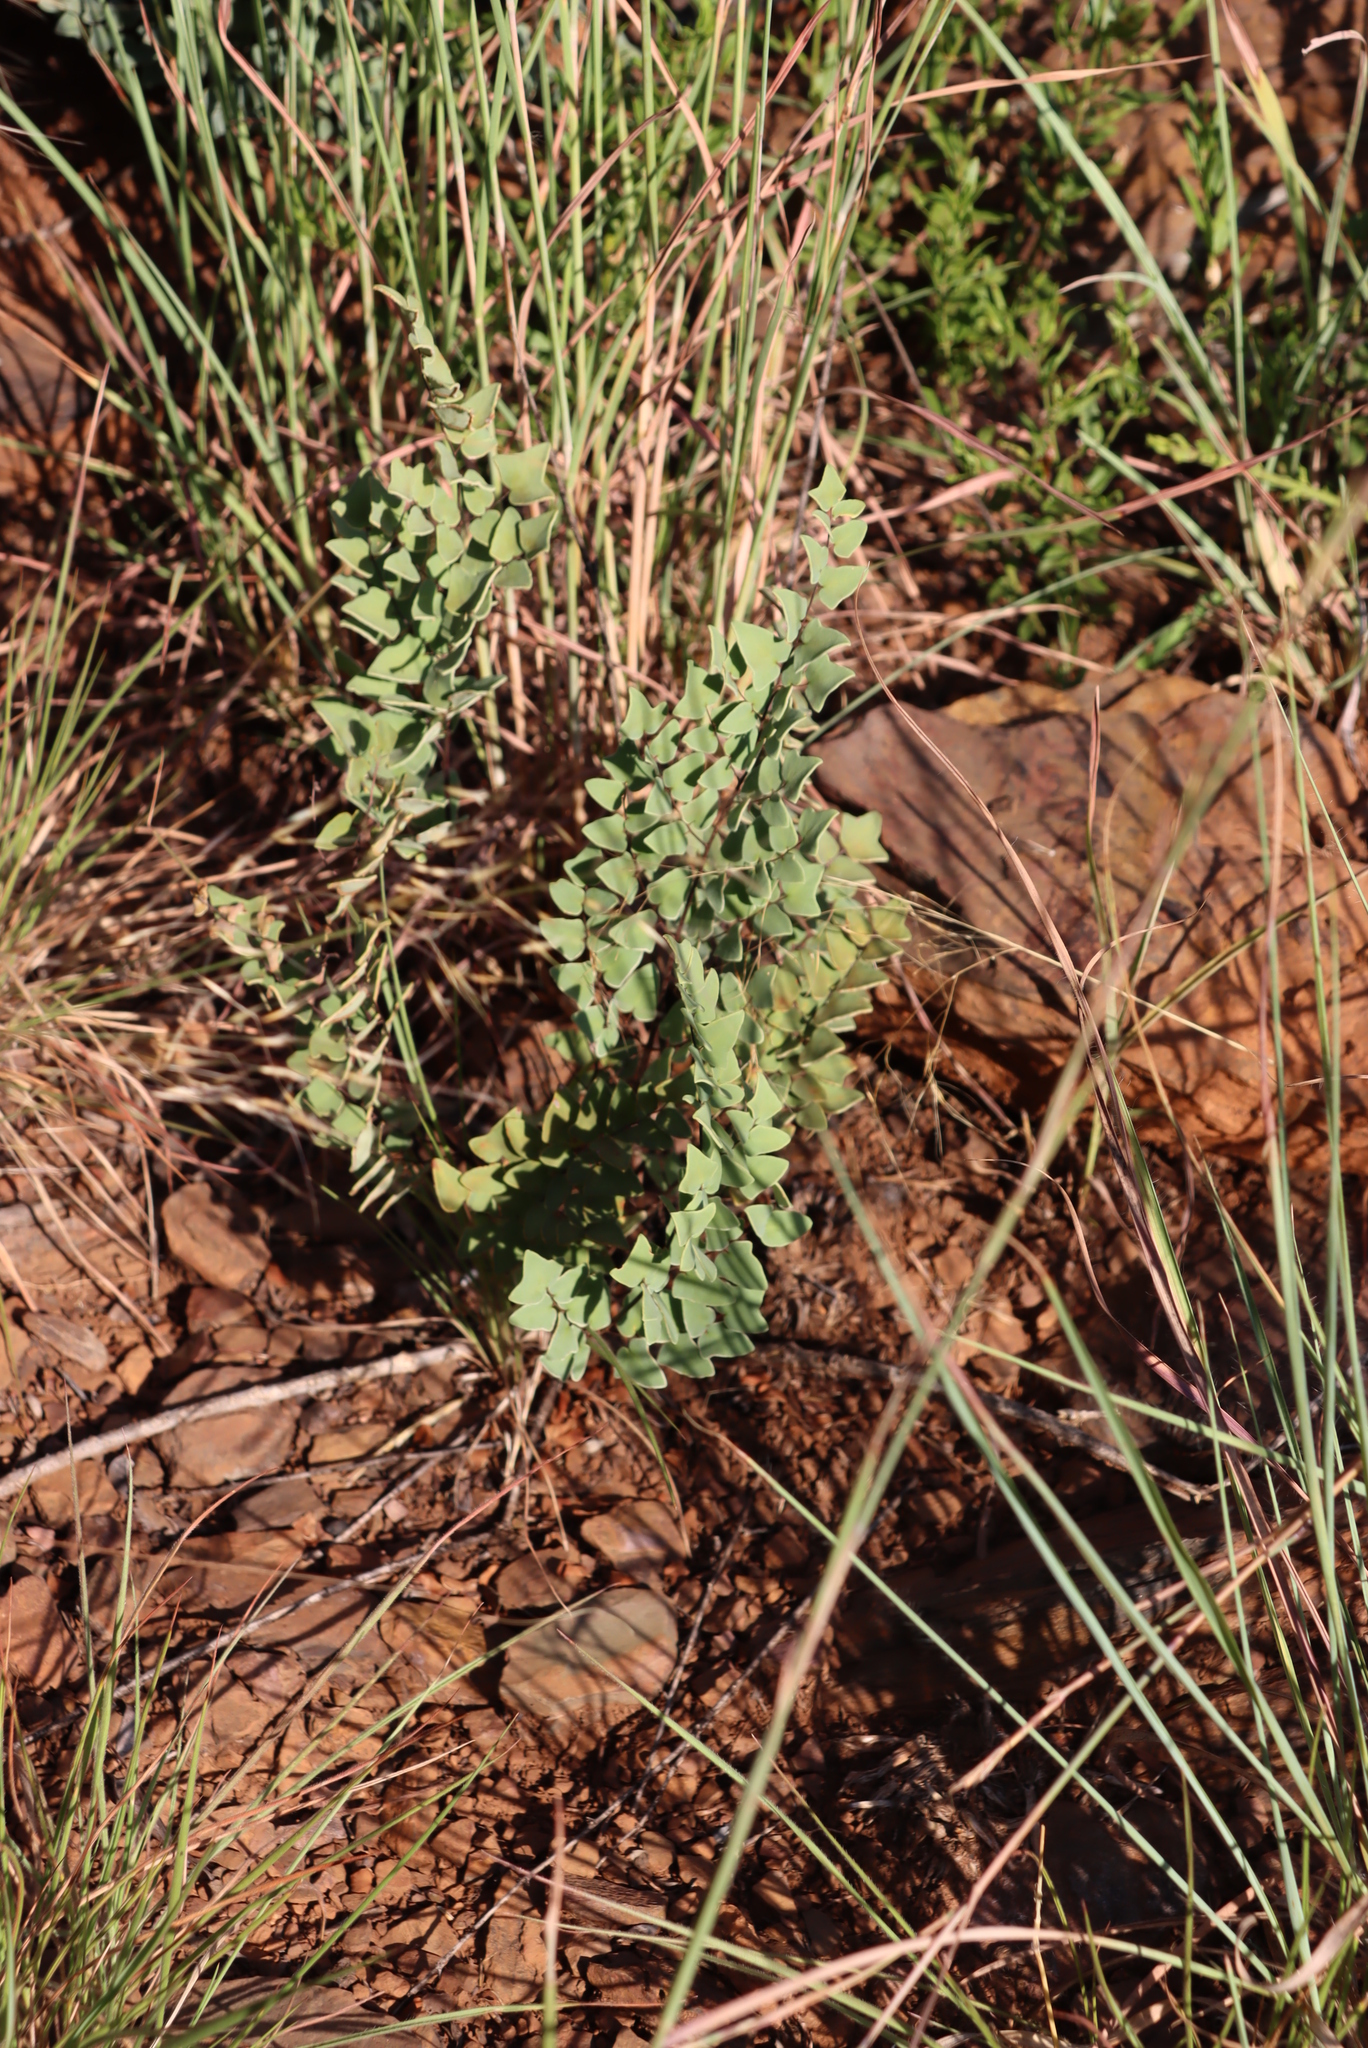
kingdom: Plantae
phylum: Tracheophyta
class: Polypodiopsida
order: Polypodiales
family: Pteridaceae
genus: Pellaea
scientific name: Pellaea calomelanos
